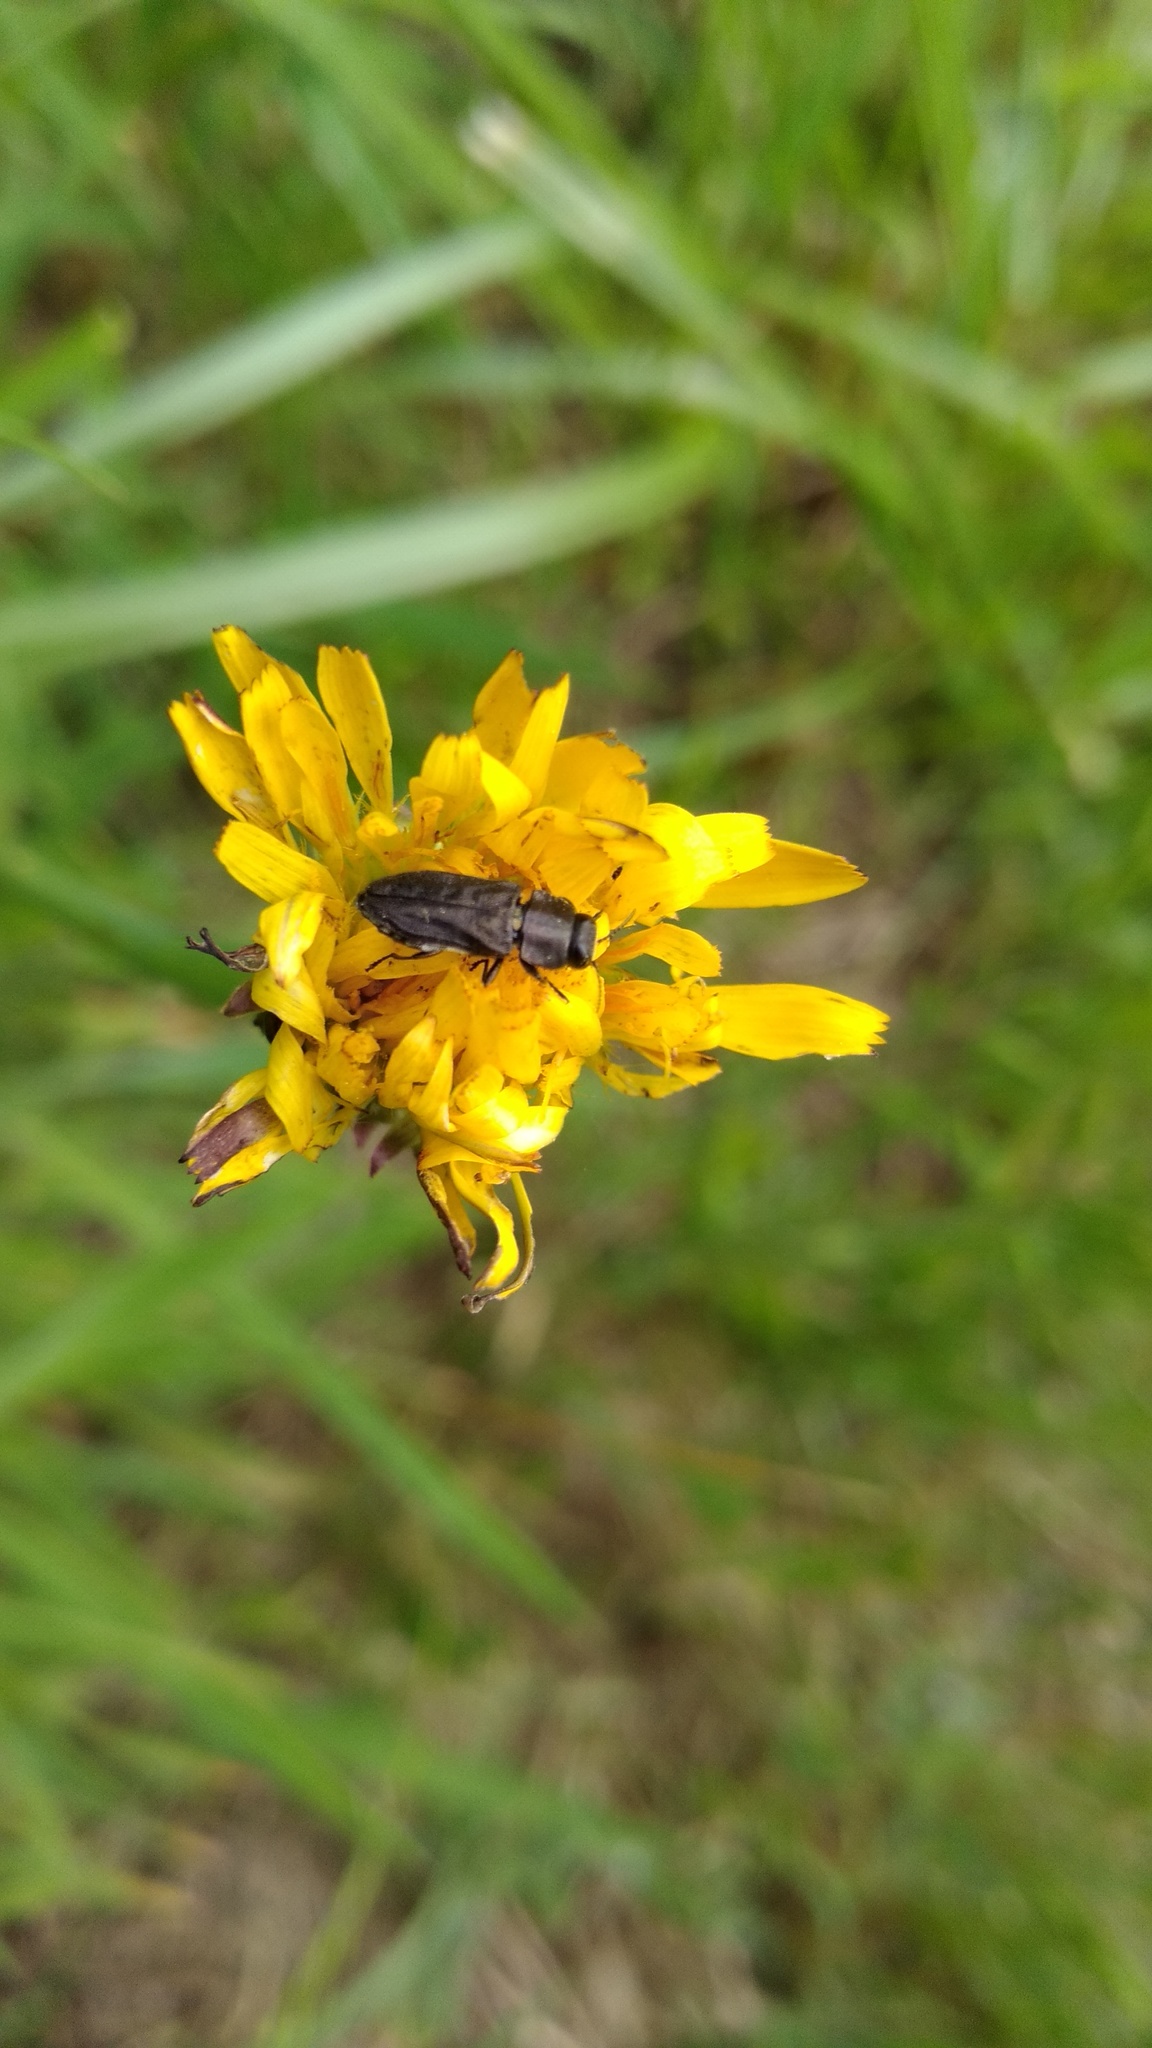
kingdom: Animalia
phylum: Arthropoda
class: Insecta
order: Coleoptera
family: Buprestidae
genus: Anthaxia
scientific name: Anthaxia confusa
